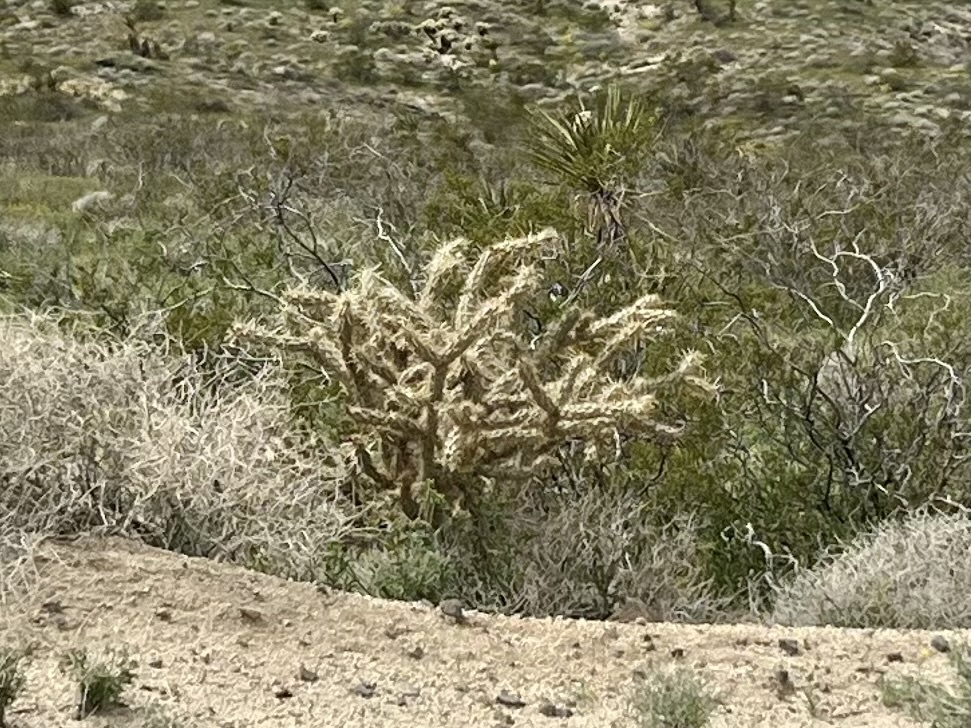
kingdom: Plantae
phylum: Tracheophyta
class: Magnoliopsida
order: Caryophyllales
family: Cactaceae
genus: Cylindropuntia
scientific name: Cylindropuntia acanthocarpa
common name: Buckhorn cholla
